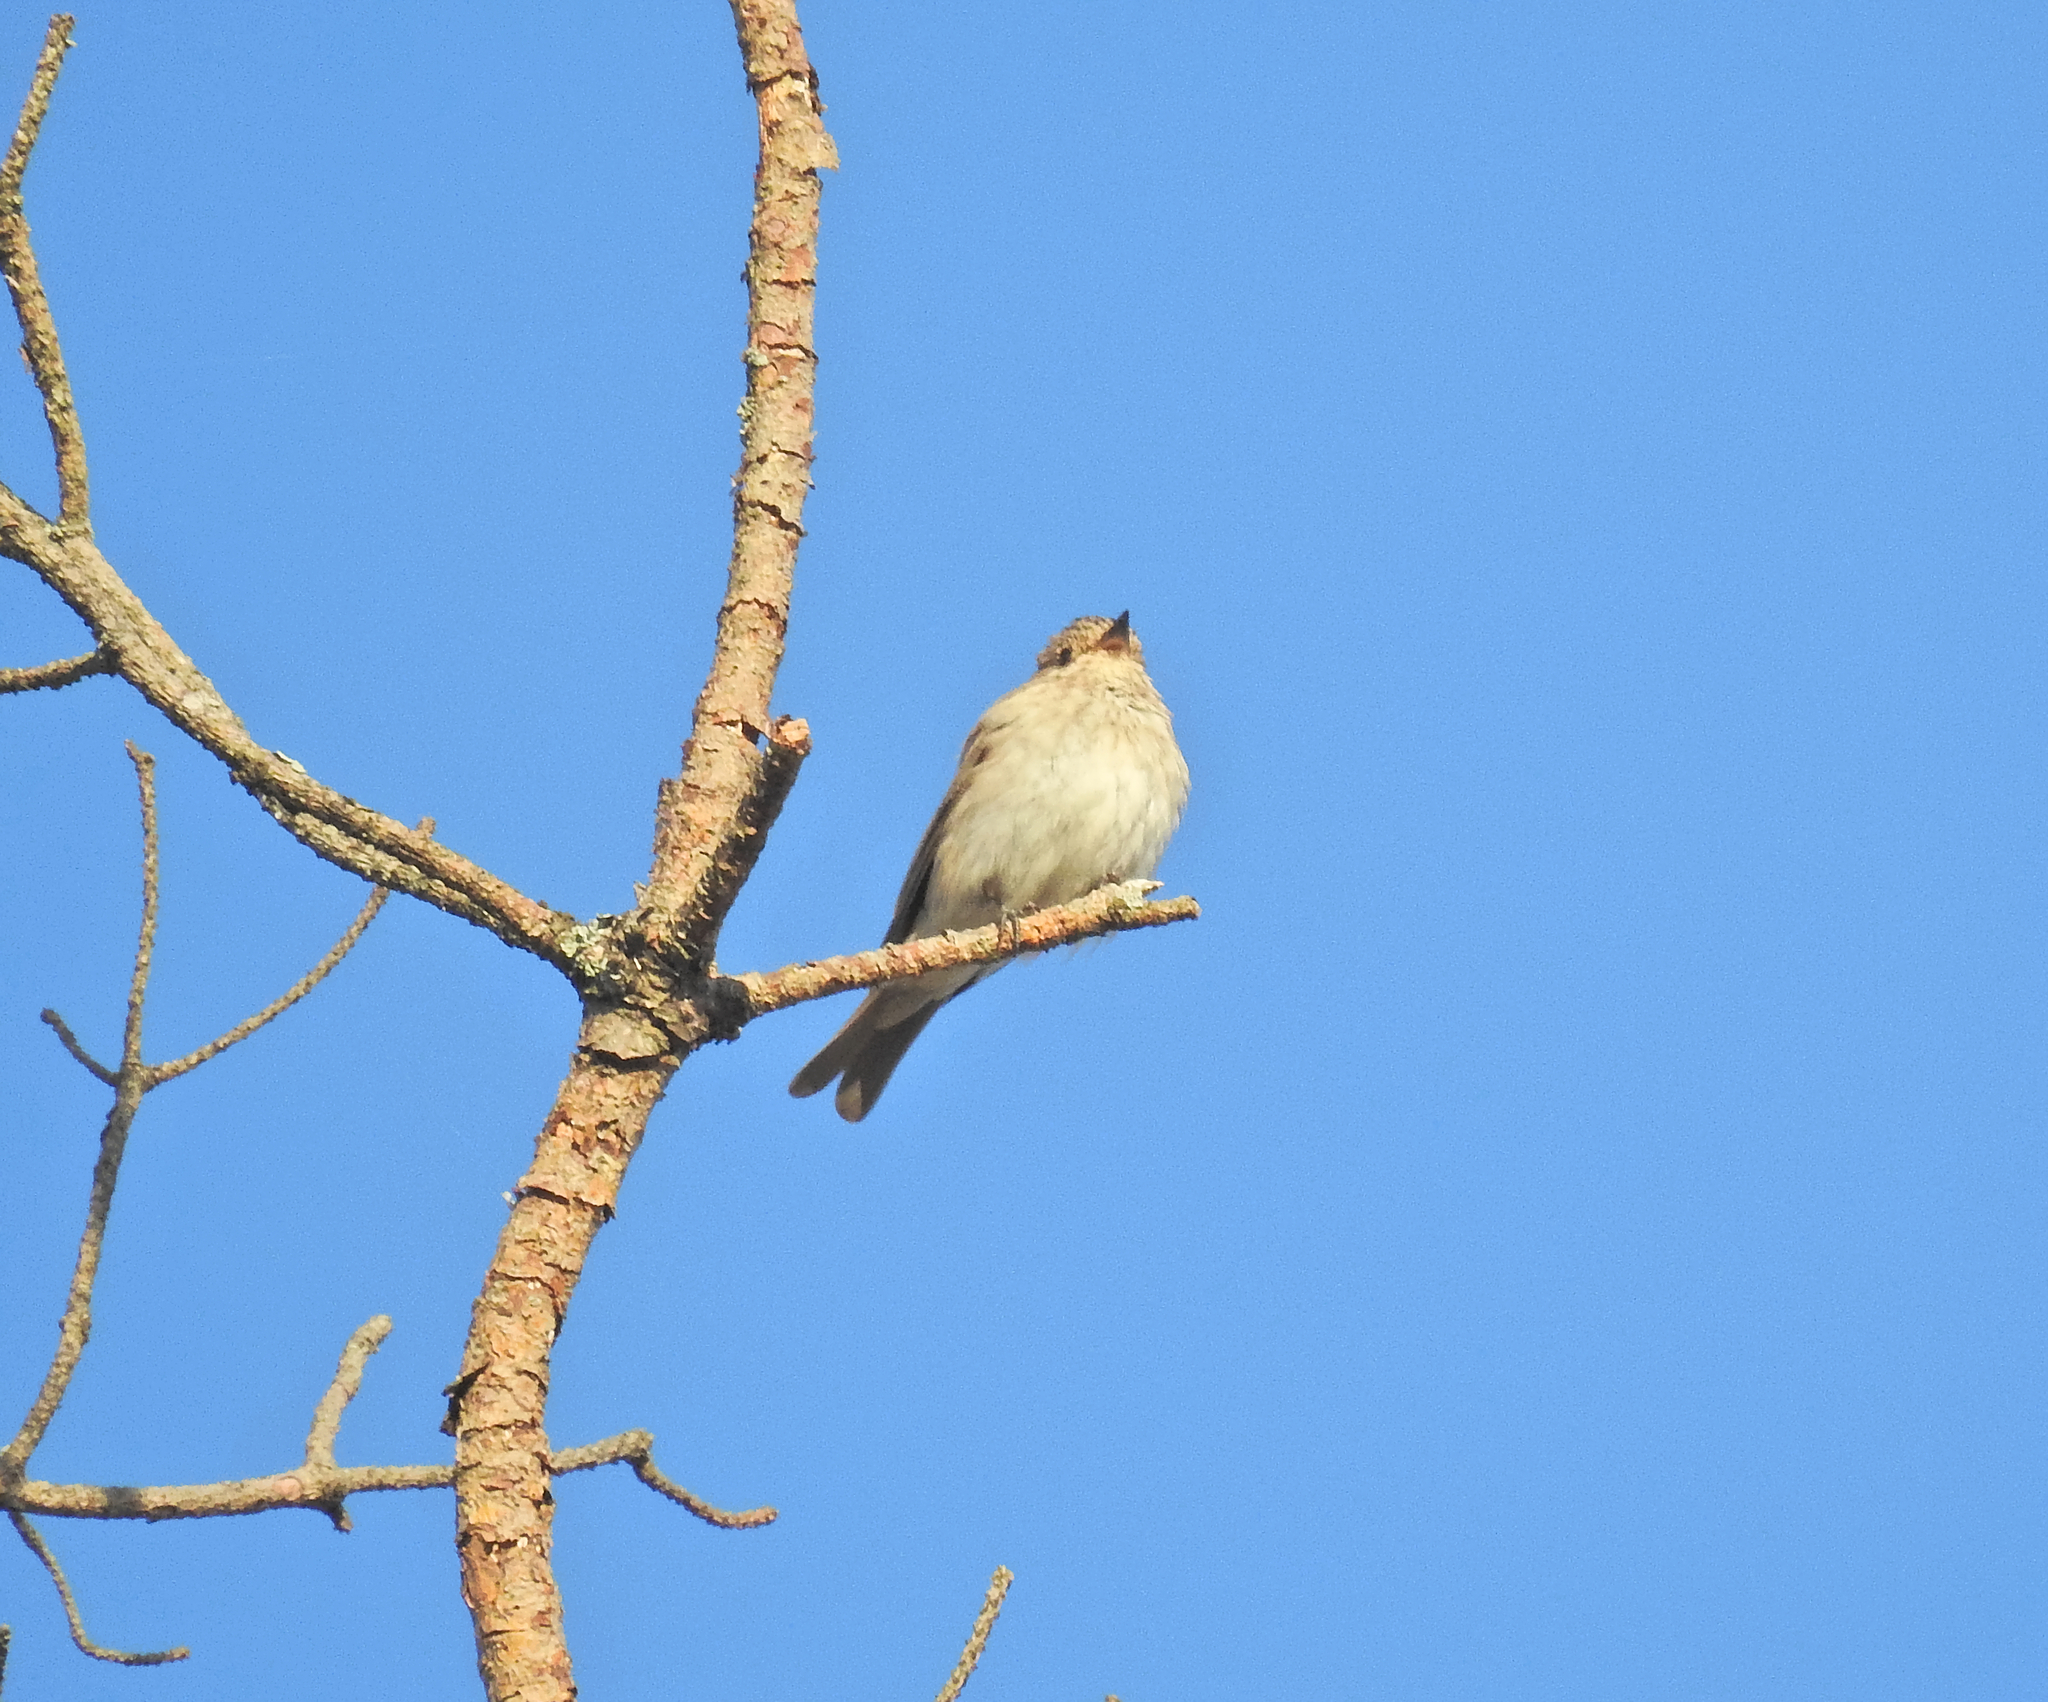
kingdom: Animalia
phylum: Chordata
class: Aves
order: Passeriformes
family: Muscicapidae
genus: Muscicapa
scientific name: Muscicapa striata
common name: Spotted flycatcher
